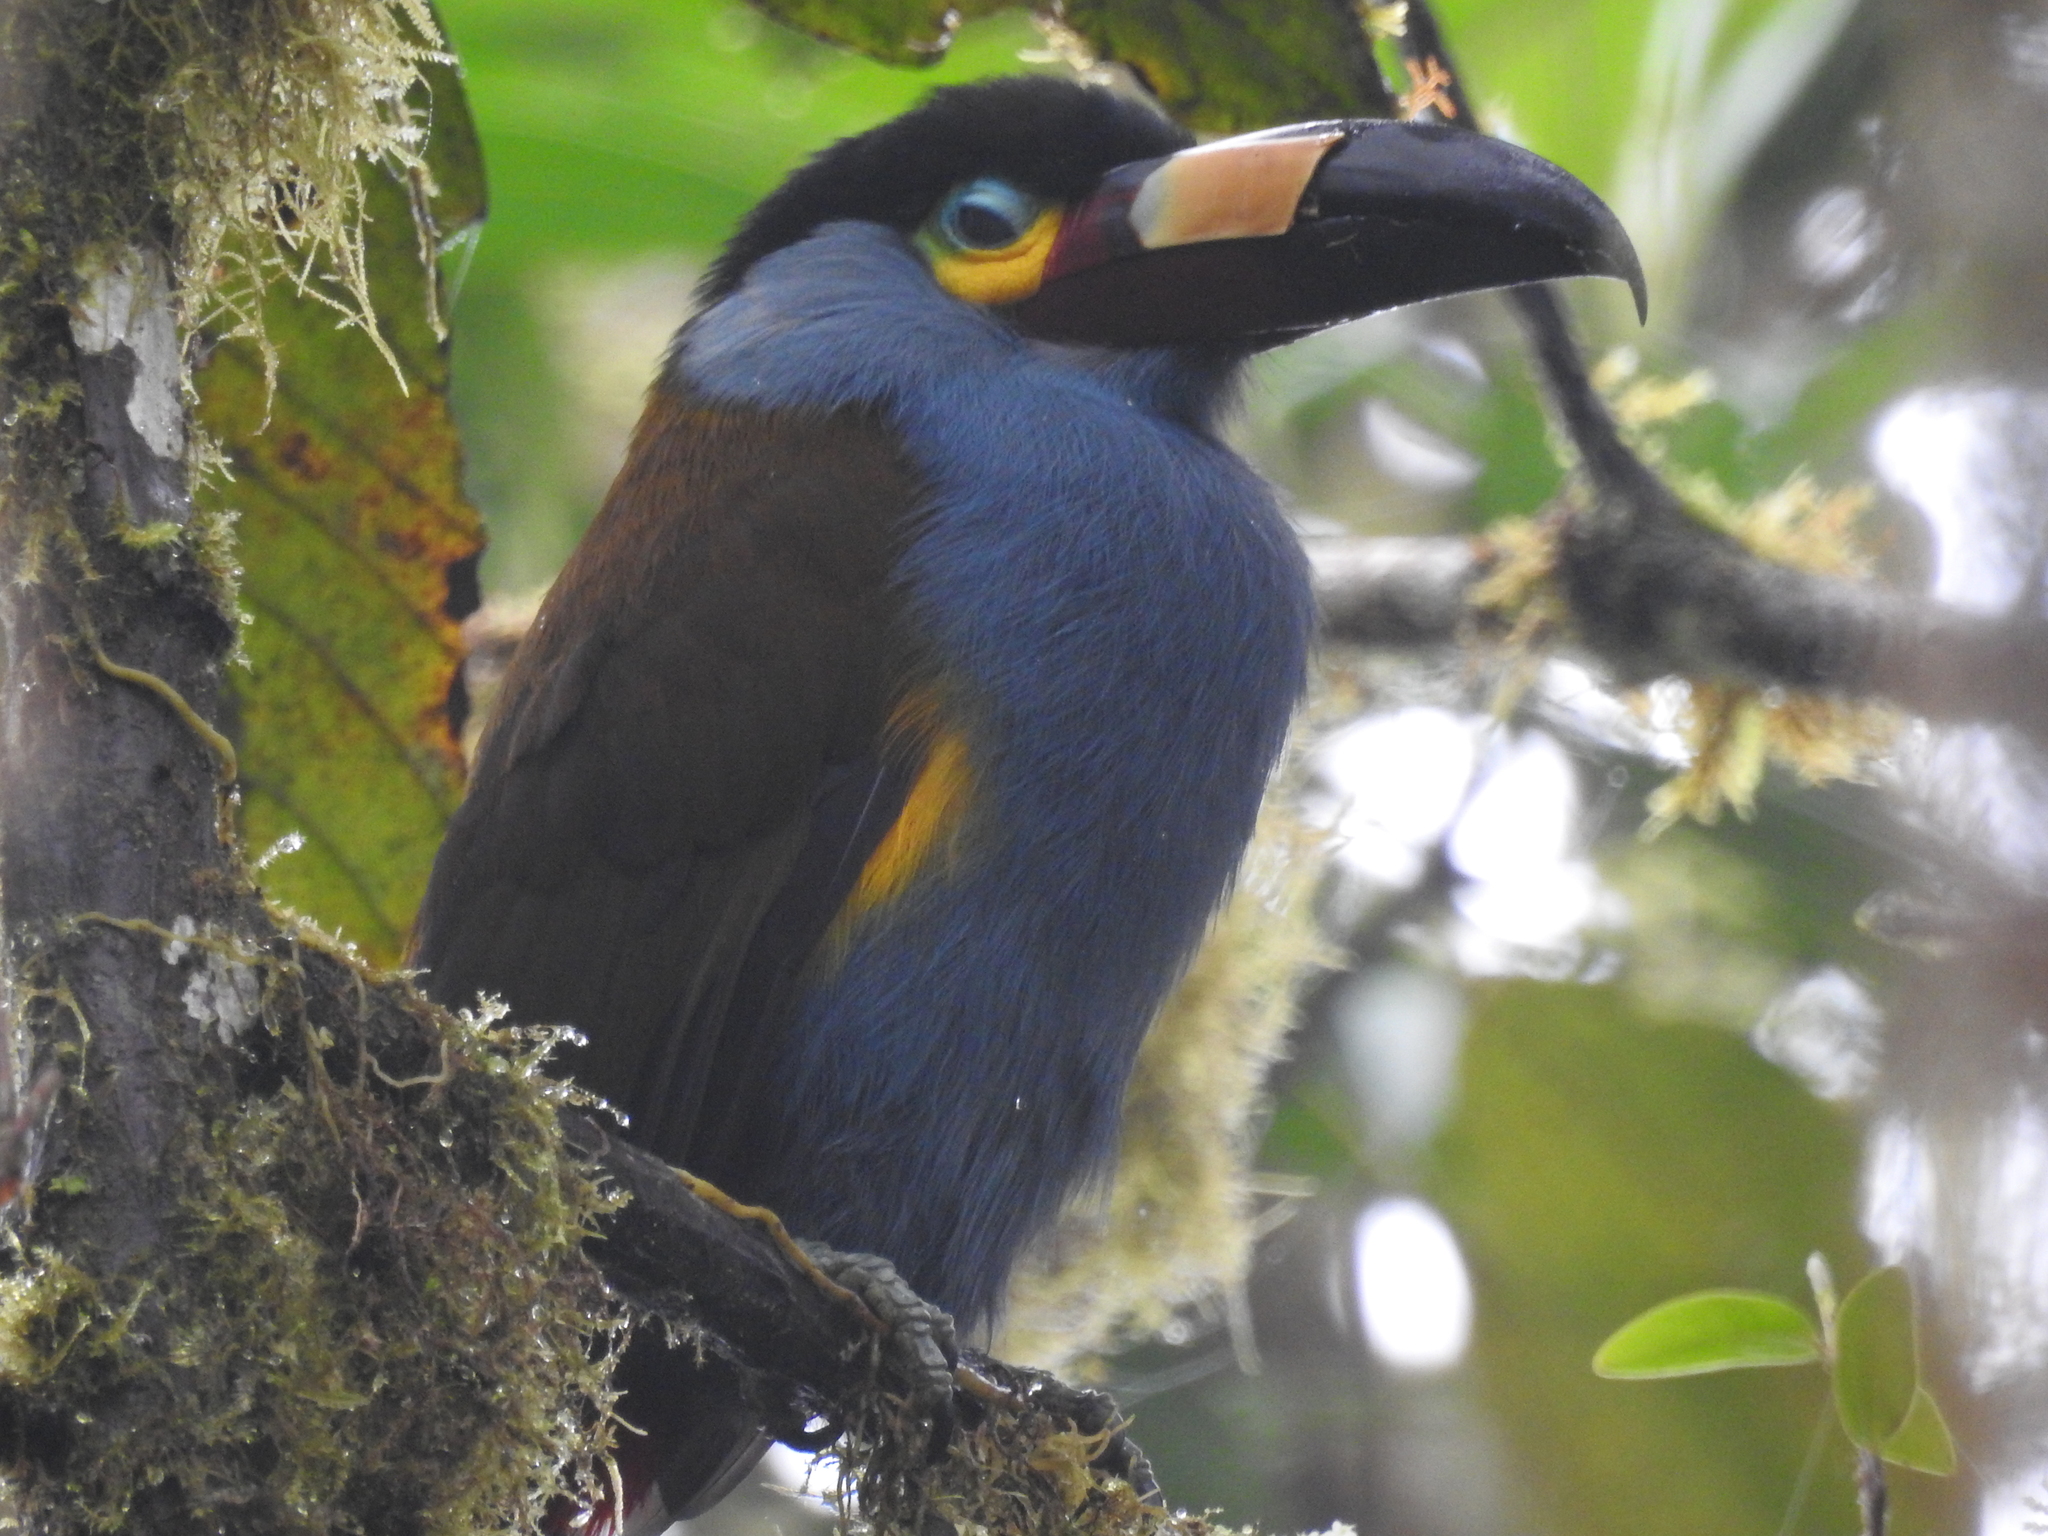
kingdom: Animalia
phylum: Chordata
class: Aves
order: Piciformes
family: Ramphastidae
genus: Andigena
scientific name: Andigena laminirostris
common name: Plate-billed mountain toucan
